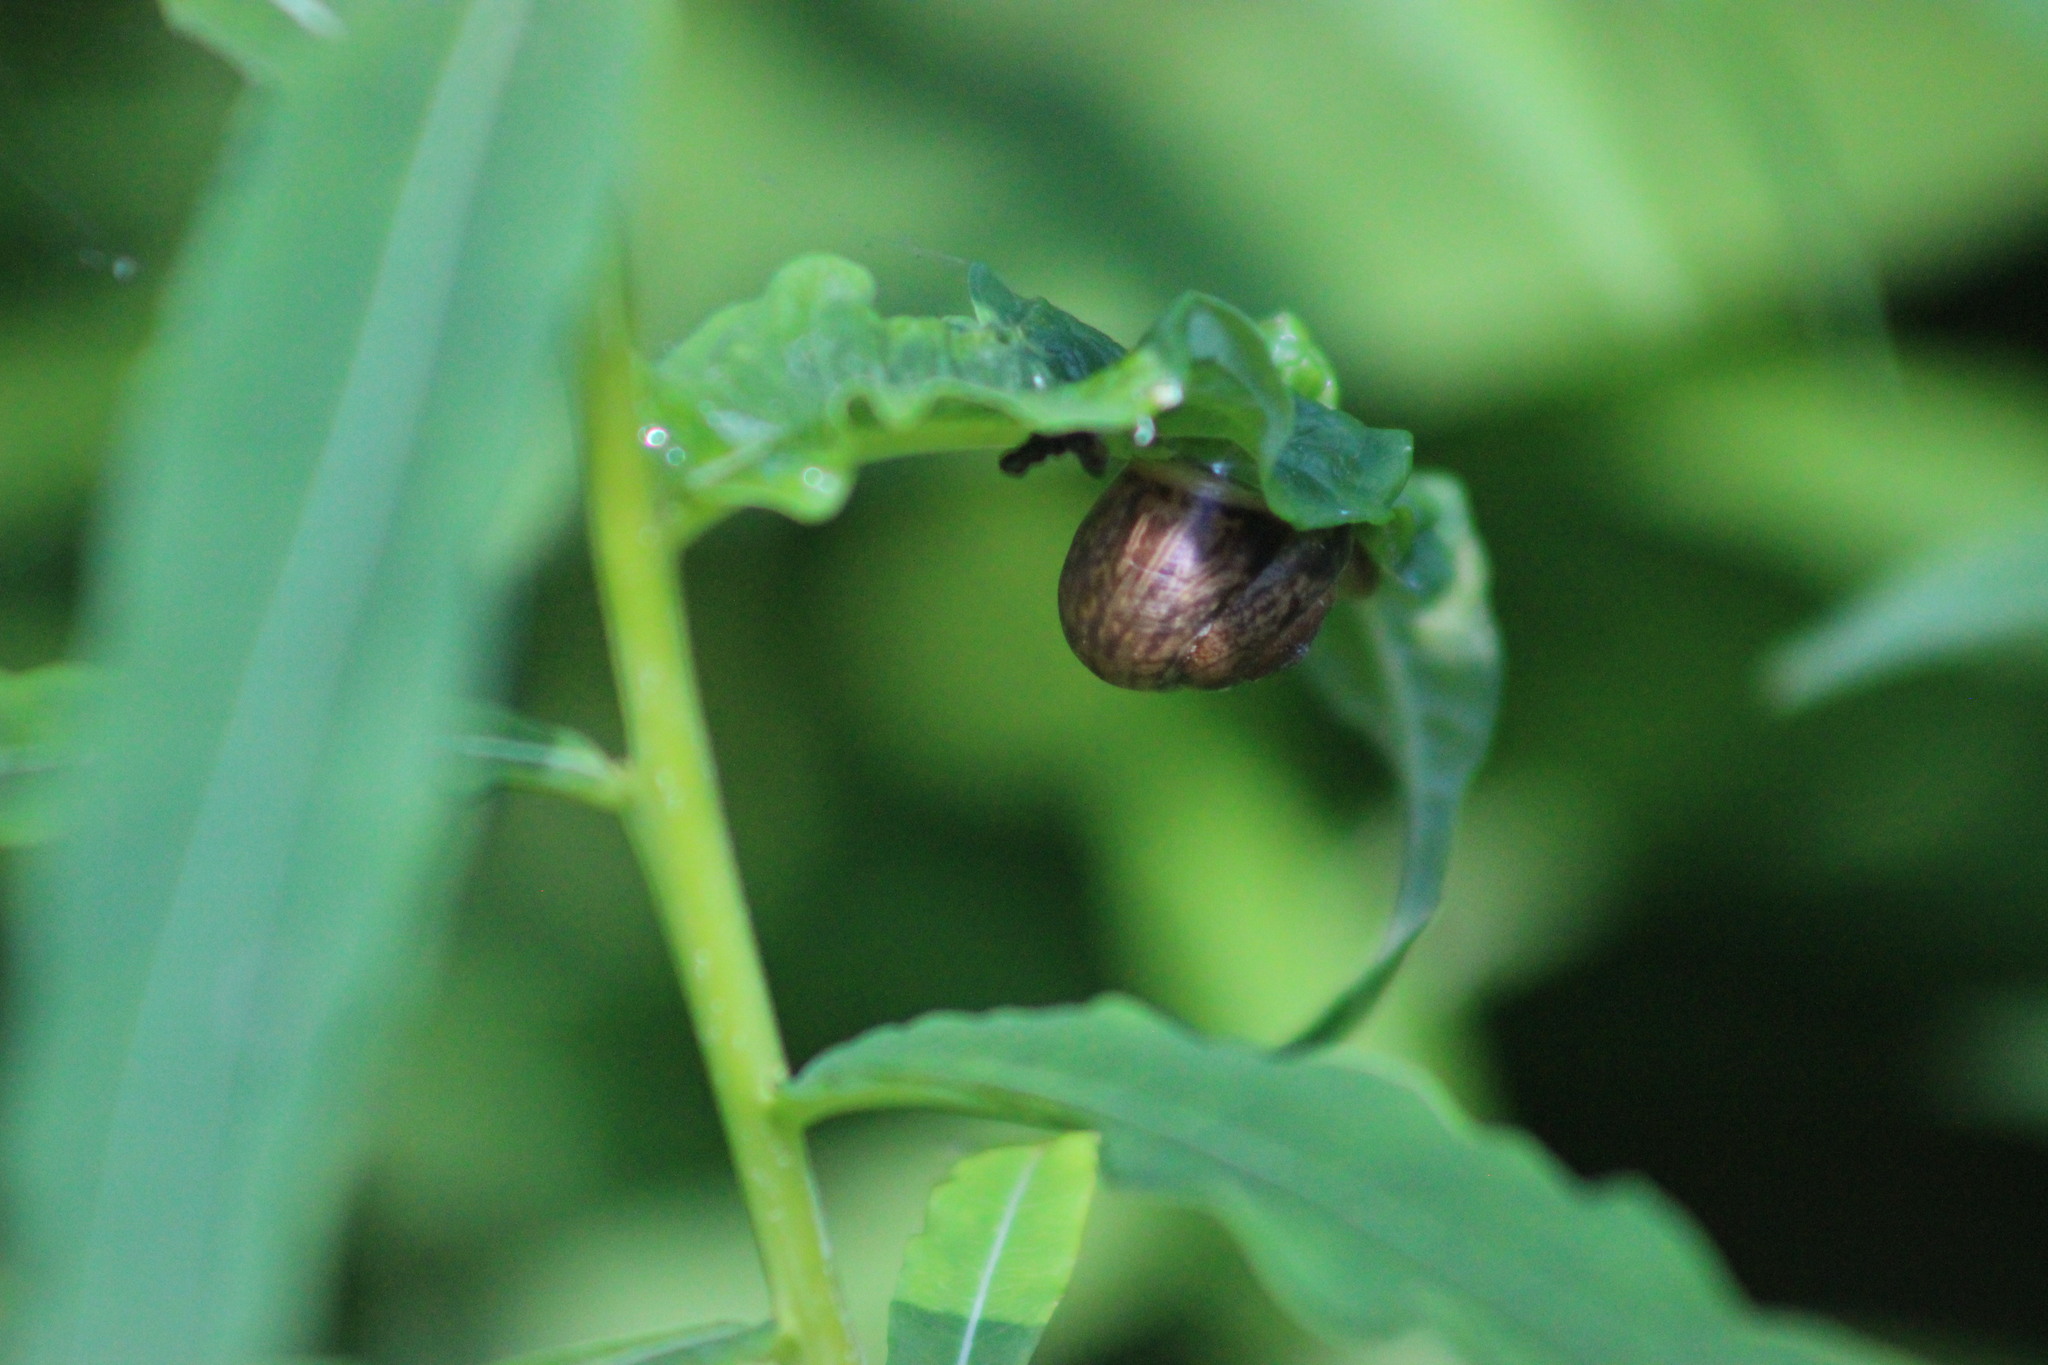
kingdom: Animalia
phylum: Mollusca
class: Gastropoda
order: Stylommatophora
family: Camaenidae
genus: Fruticicola
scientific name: Fruticicola fruticum
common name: Bush snail
